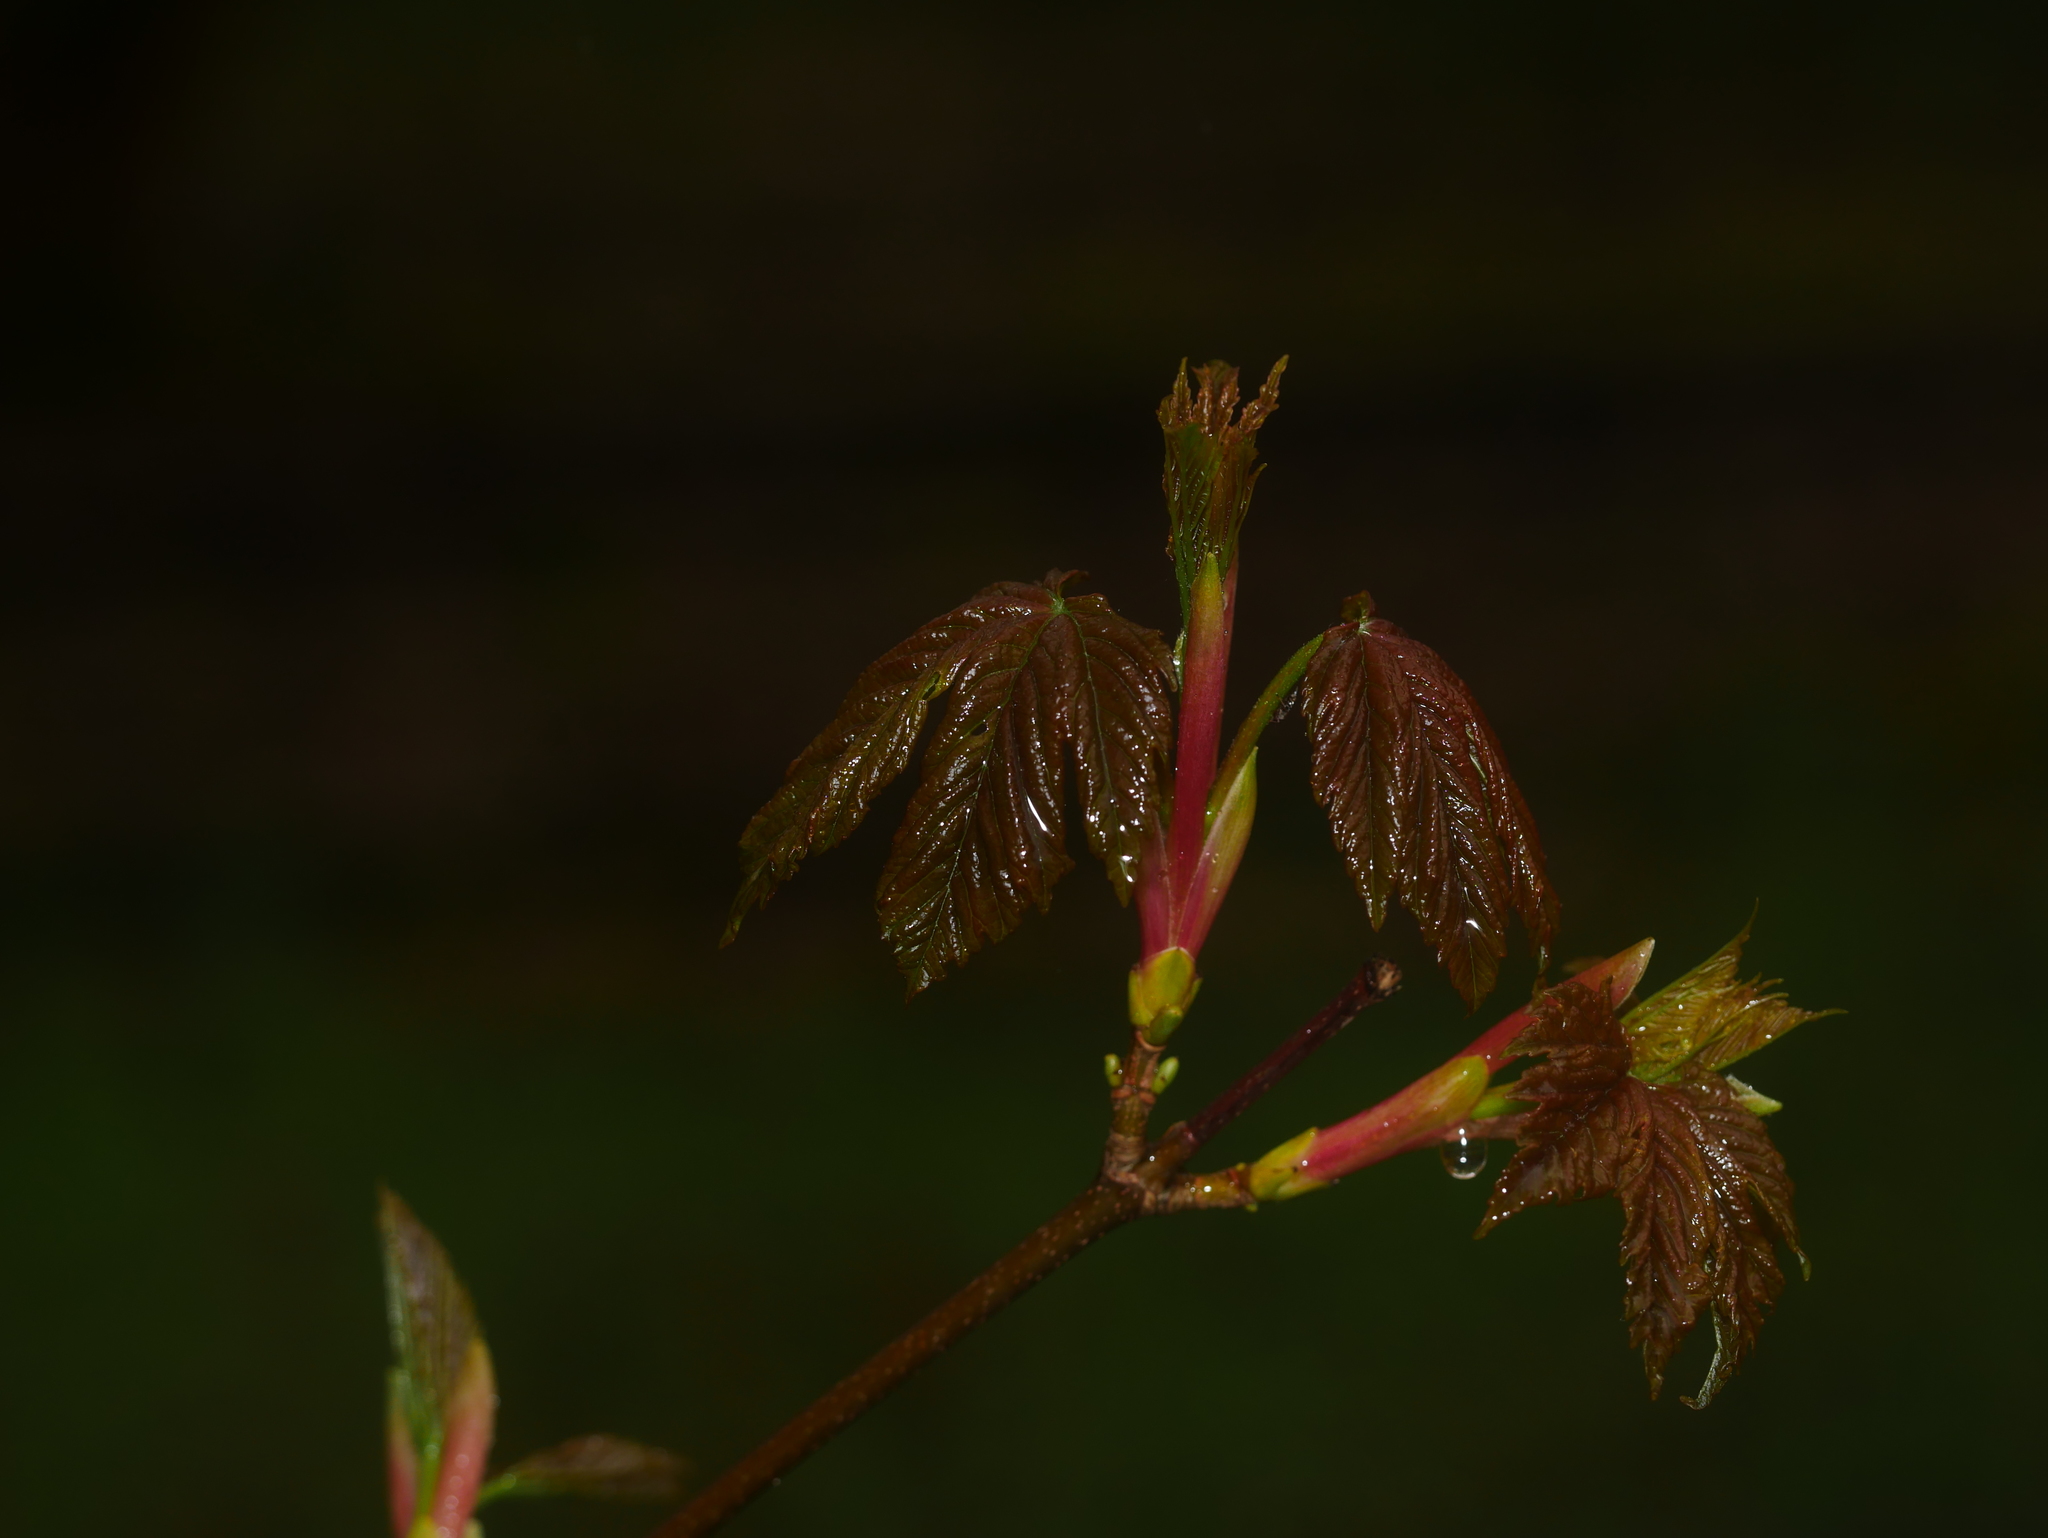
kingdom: Plantae
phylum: Tracheophyta
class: Magnoliopsida
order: Sapindales
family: Sapindaceae
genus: Acer
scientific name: Acer pseudoplatanus
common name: Sycamore
